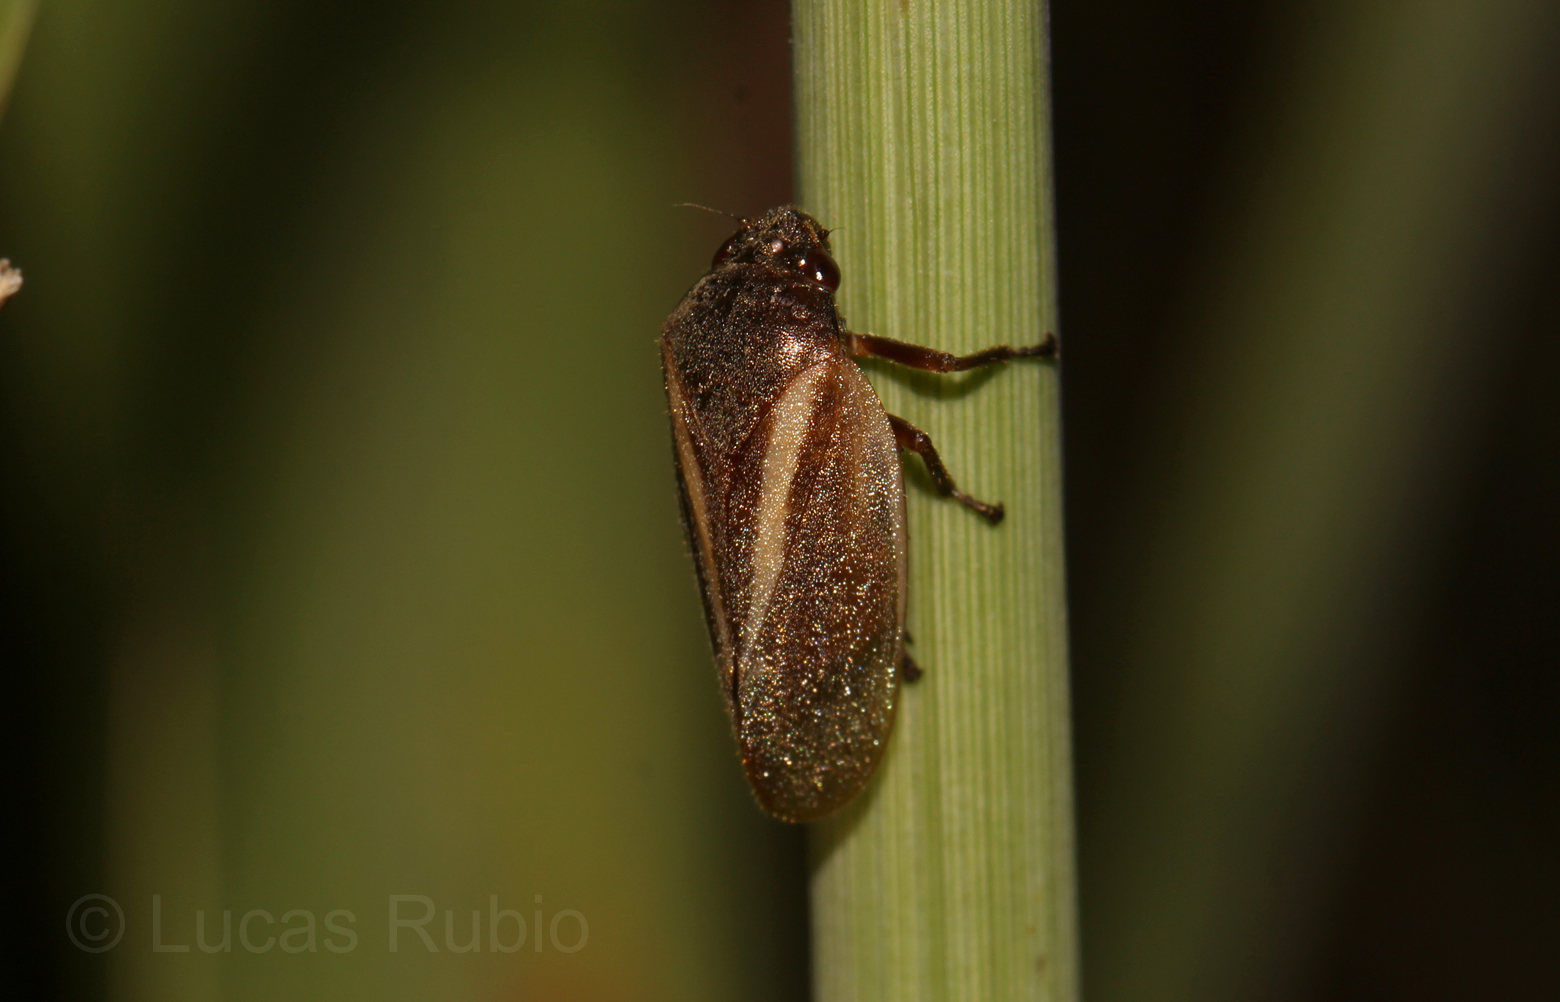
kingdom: Animalia
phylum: Arthropoda
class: Insecta
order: Hemiptera
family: Cercopidae
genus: Deois
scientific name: Deois mourei
